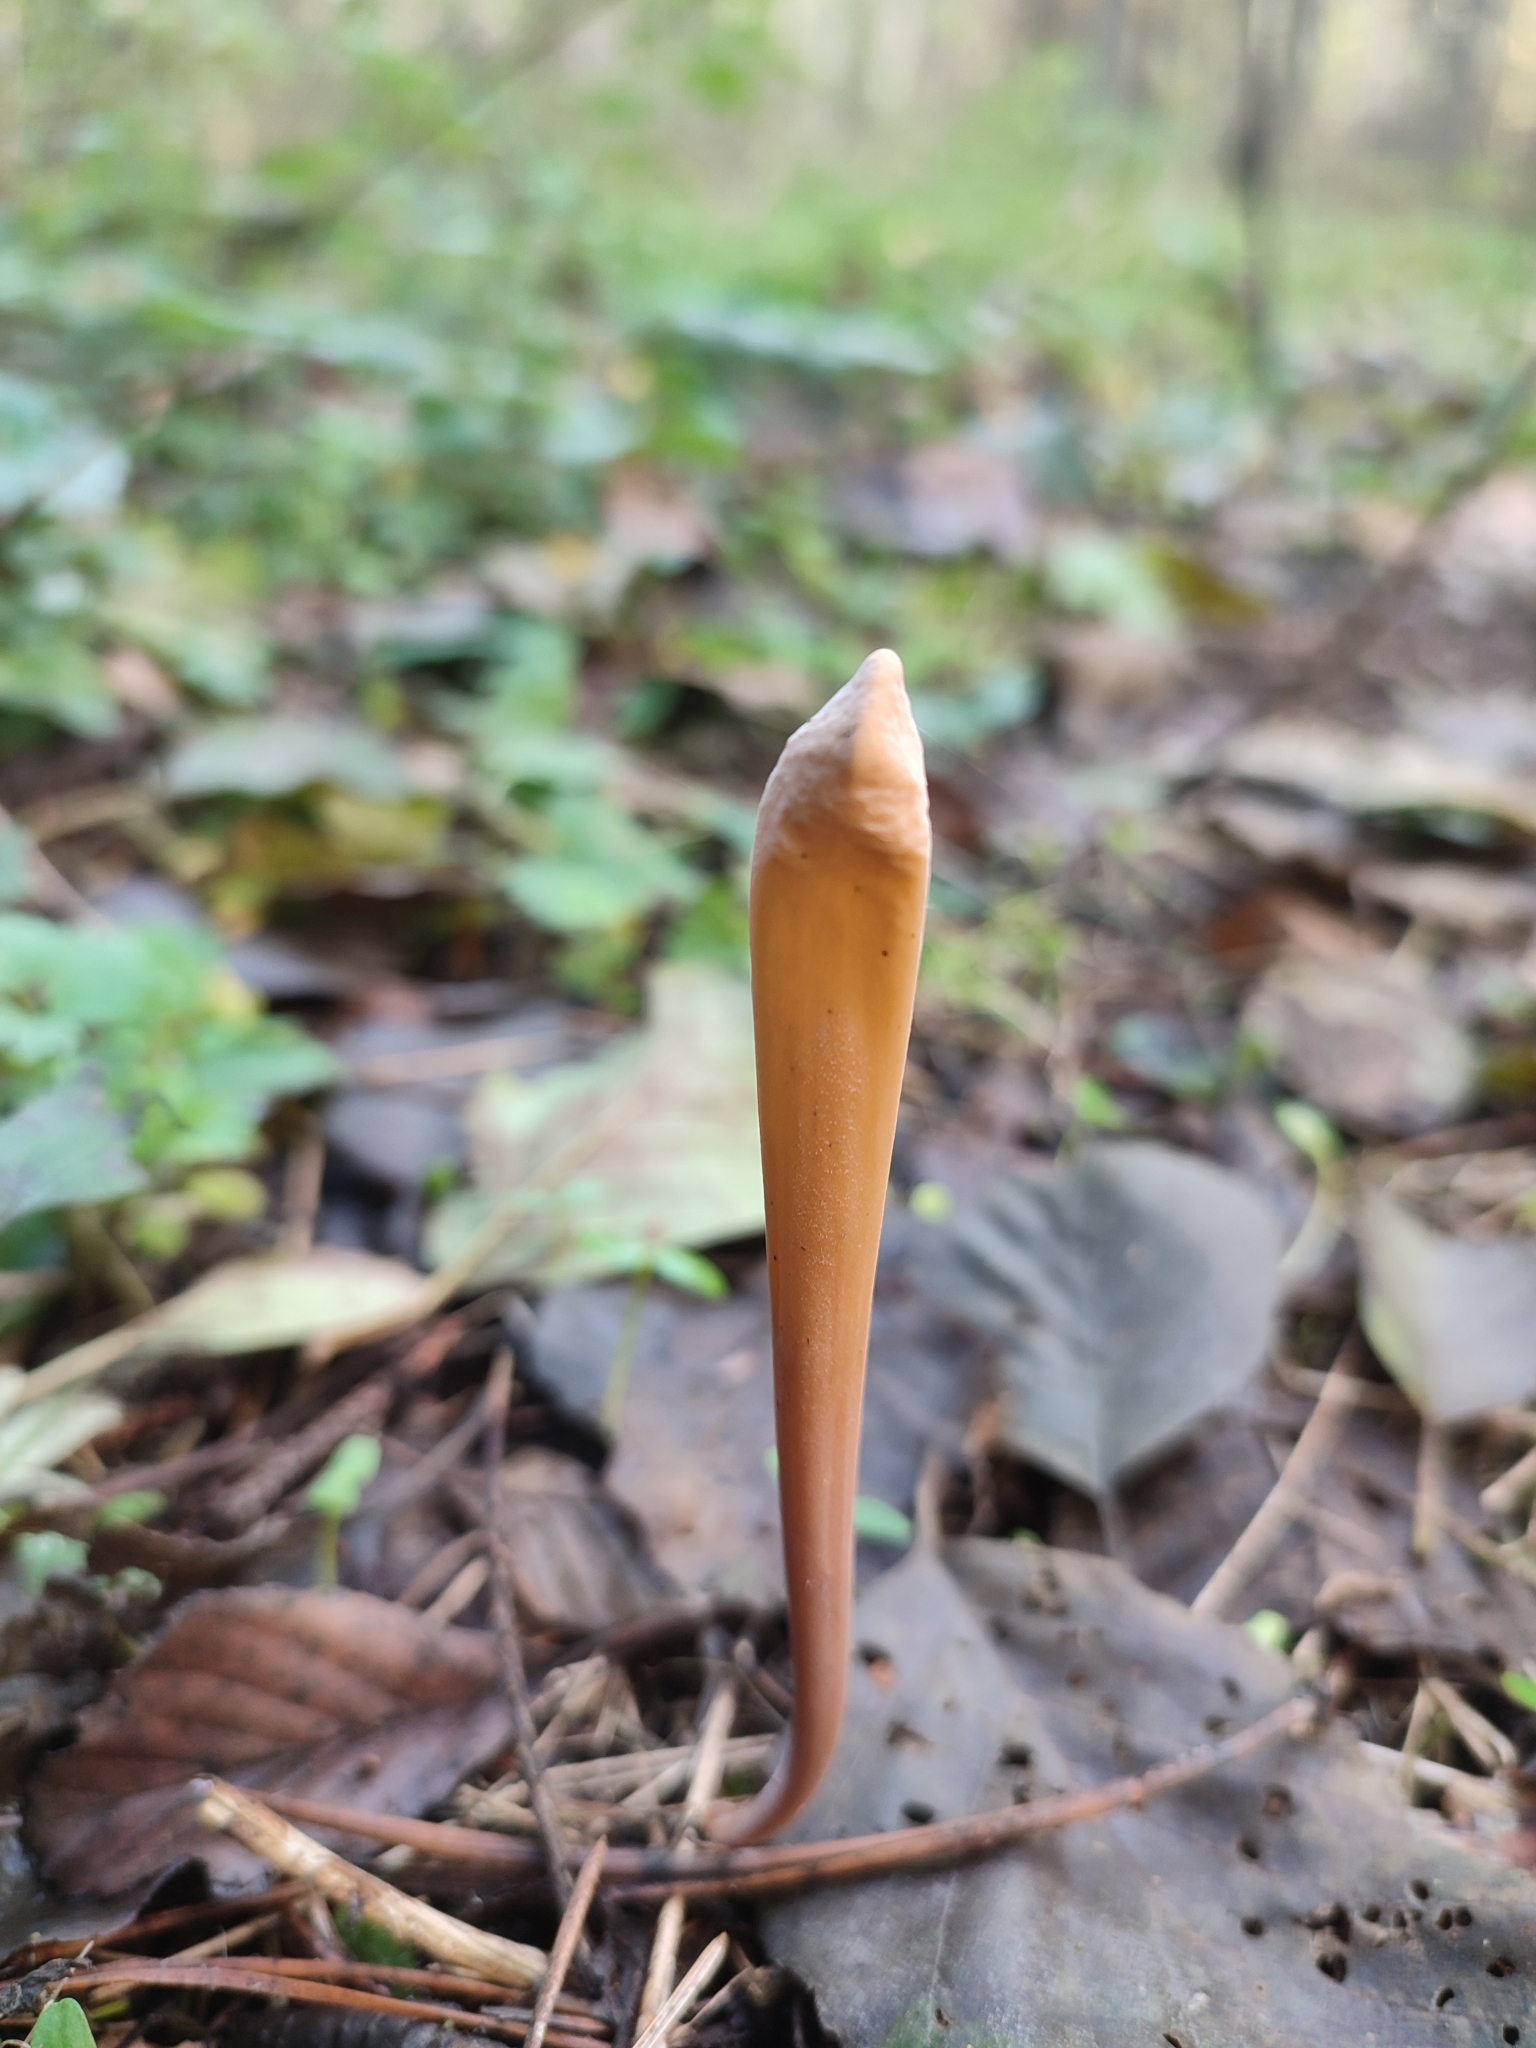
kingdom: Fungi
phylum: Basidiomycota
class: Agaricomycetes
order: Agaricales
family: Typhulaceae
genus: Typhula
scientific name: Typhula fistulosa
